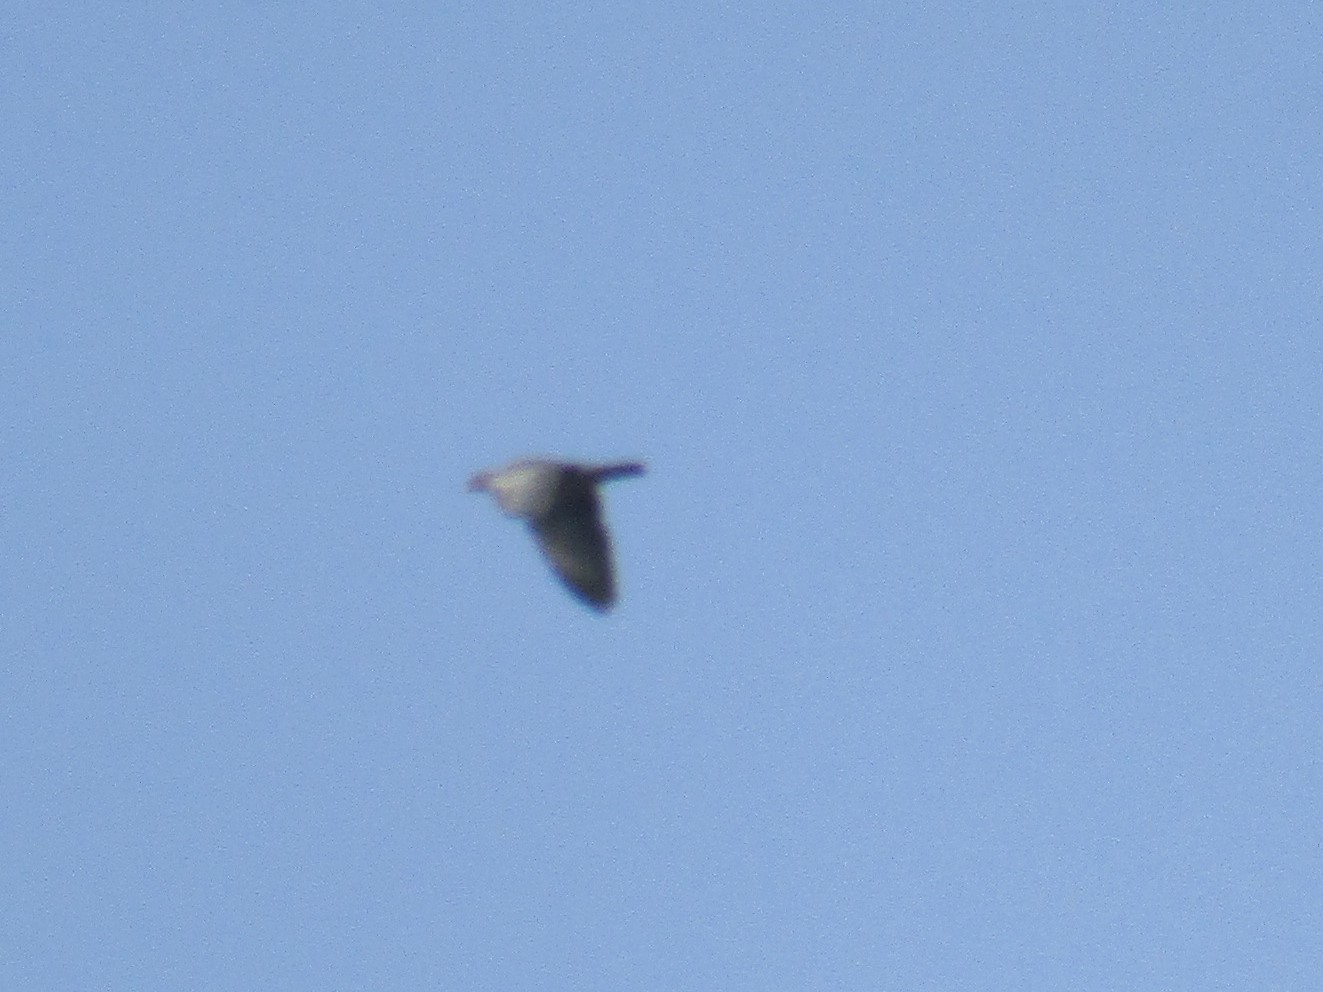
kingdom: Animalia
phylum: Chordata
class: Aves
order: Columbiformes
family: Columbidae
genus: Patagioenas
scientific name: Patagioenas picazuro
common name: Picazuro pigeon
